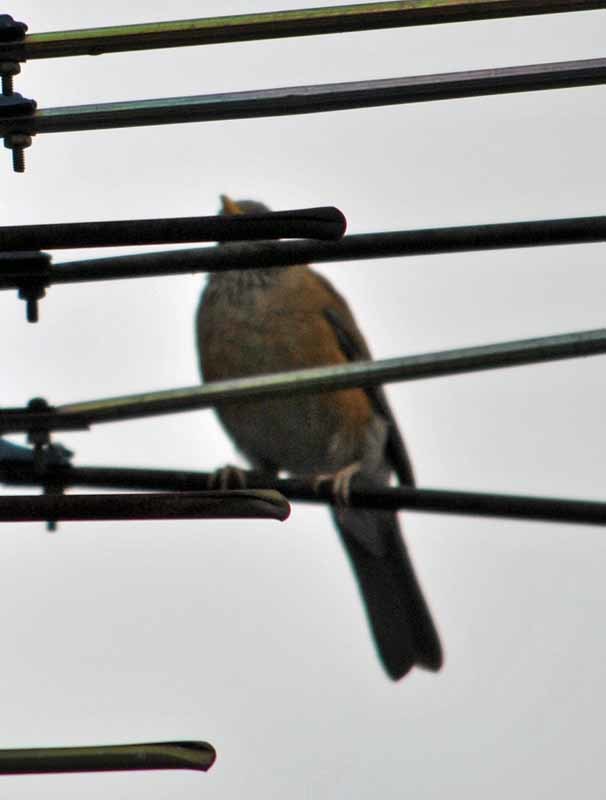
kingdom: Animalia
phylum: Chordata
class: Aves
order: Passeriformes
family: Turdidae
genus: Turdus
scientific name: Turdus rufopalliatus
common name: Rufous-backed robin
